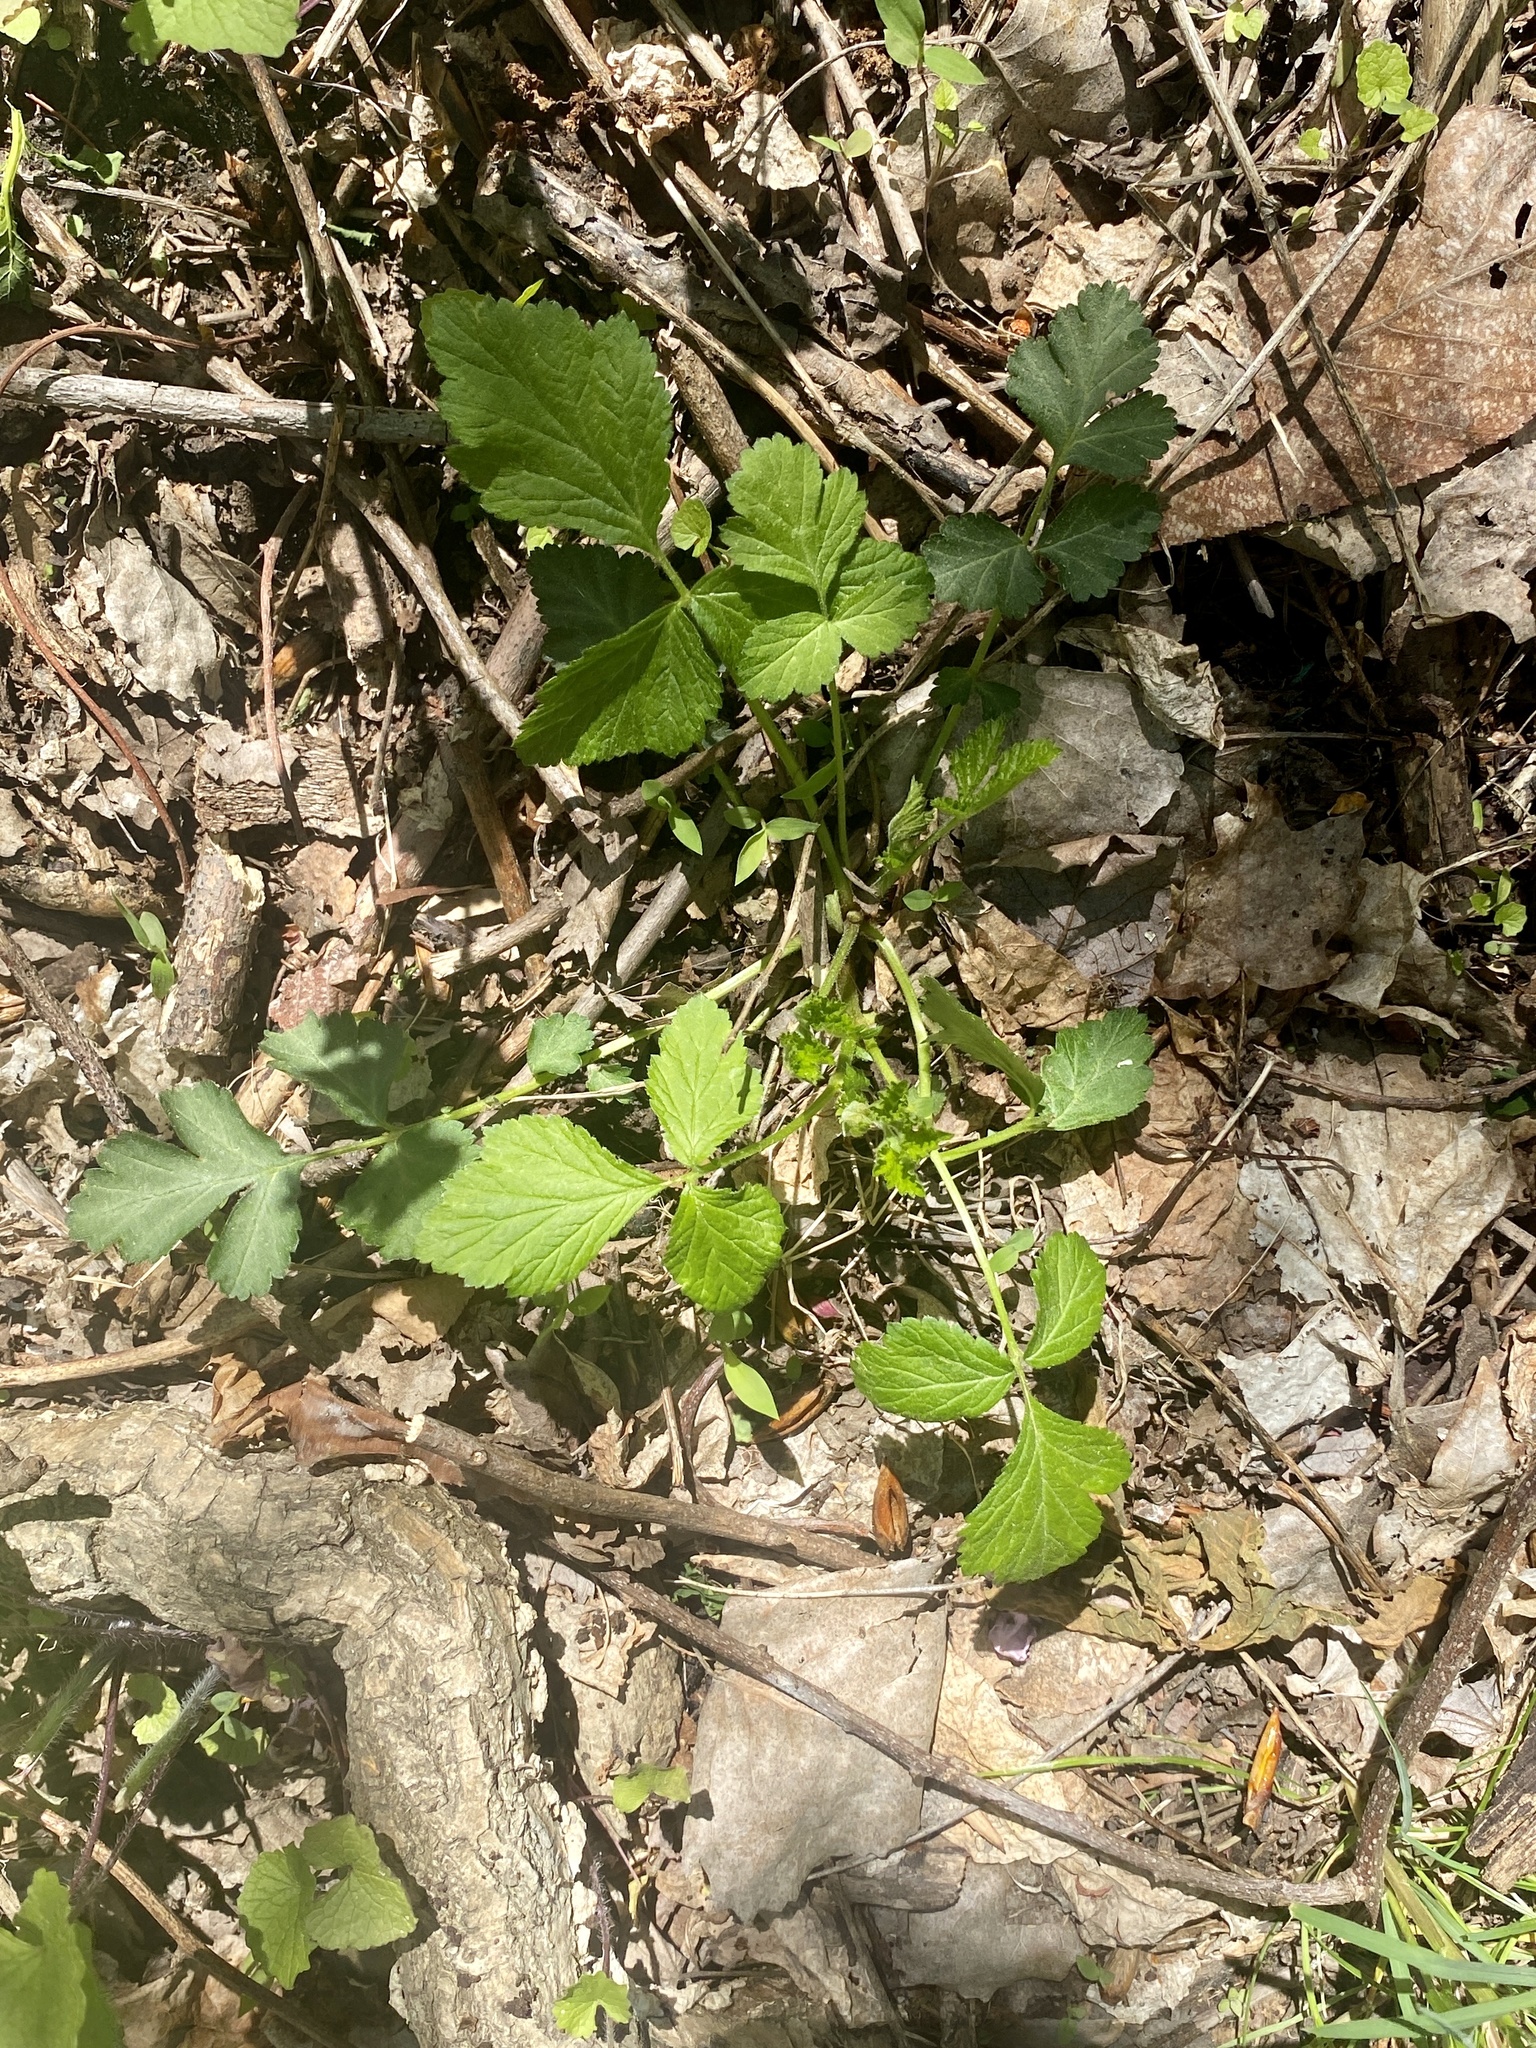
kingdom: Plantae
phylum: Tracheophyta
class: Magnoliopsida
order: Rosales
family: Rosaceae
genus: Geum
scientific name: Geum canadense
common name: White avens
